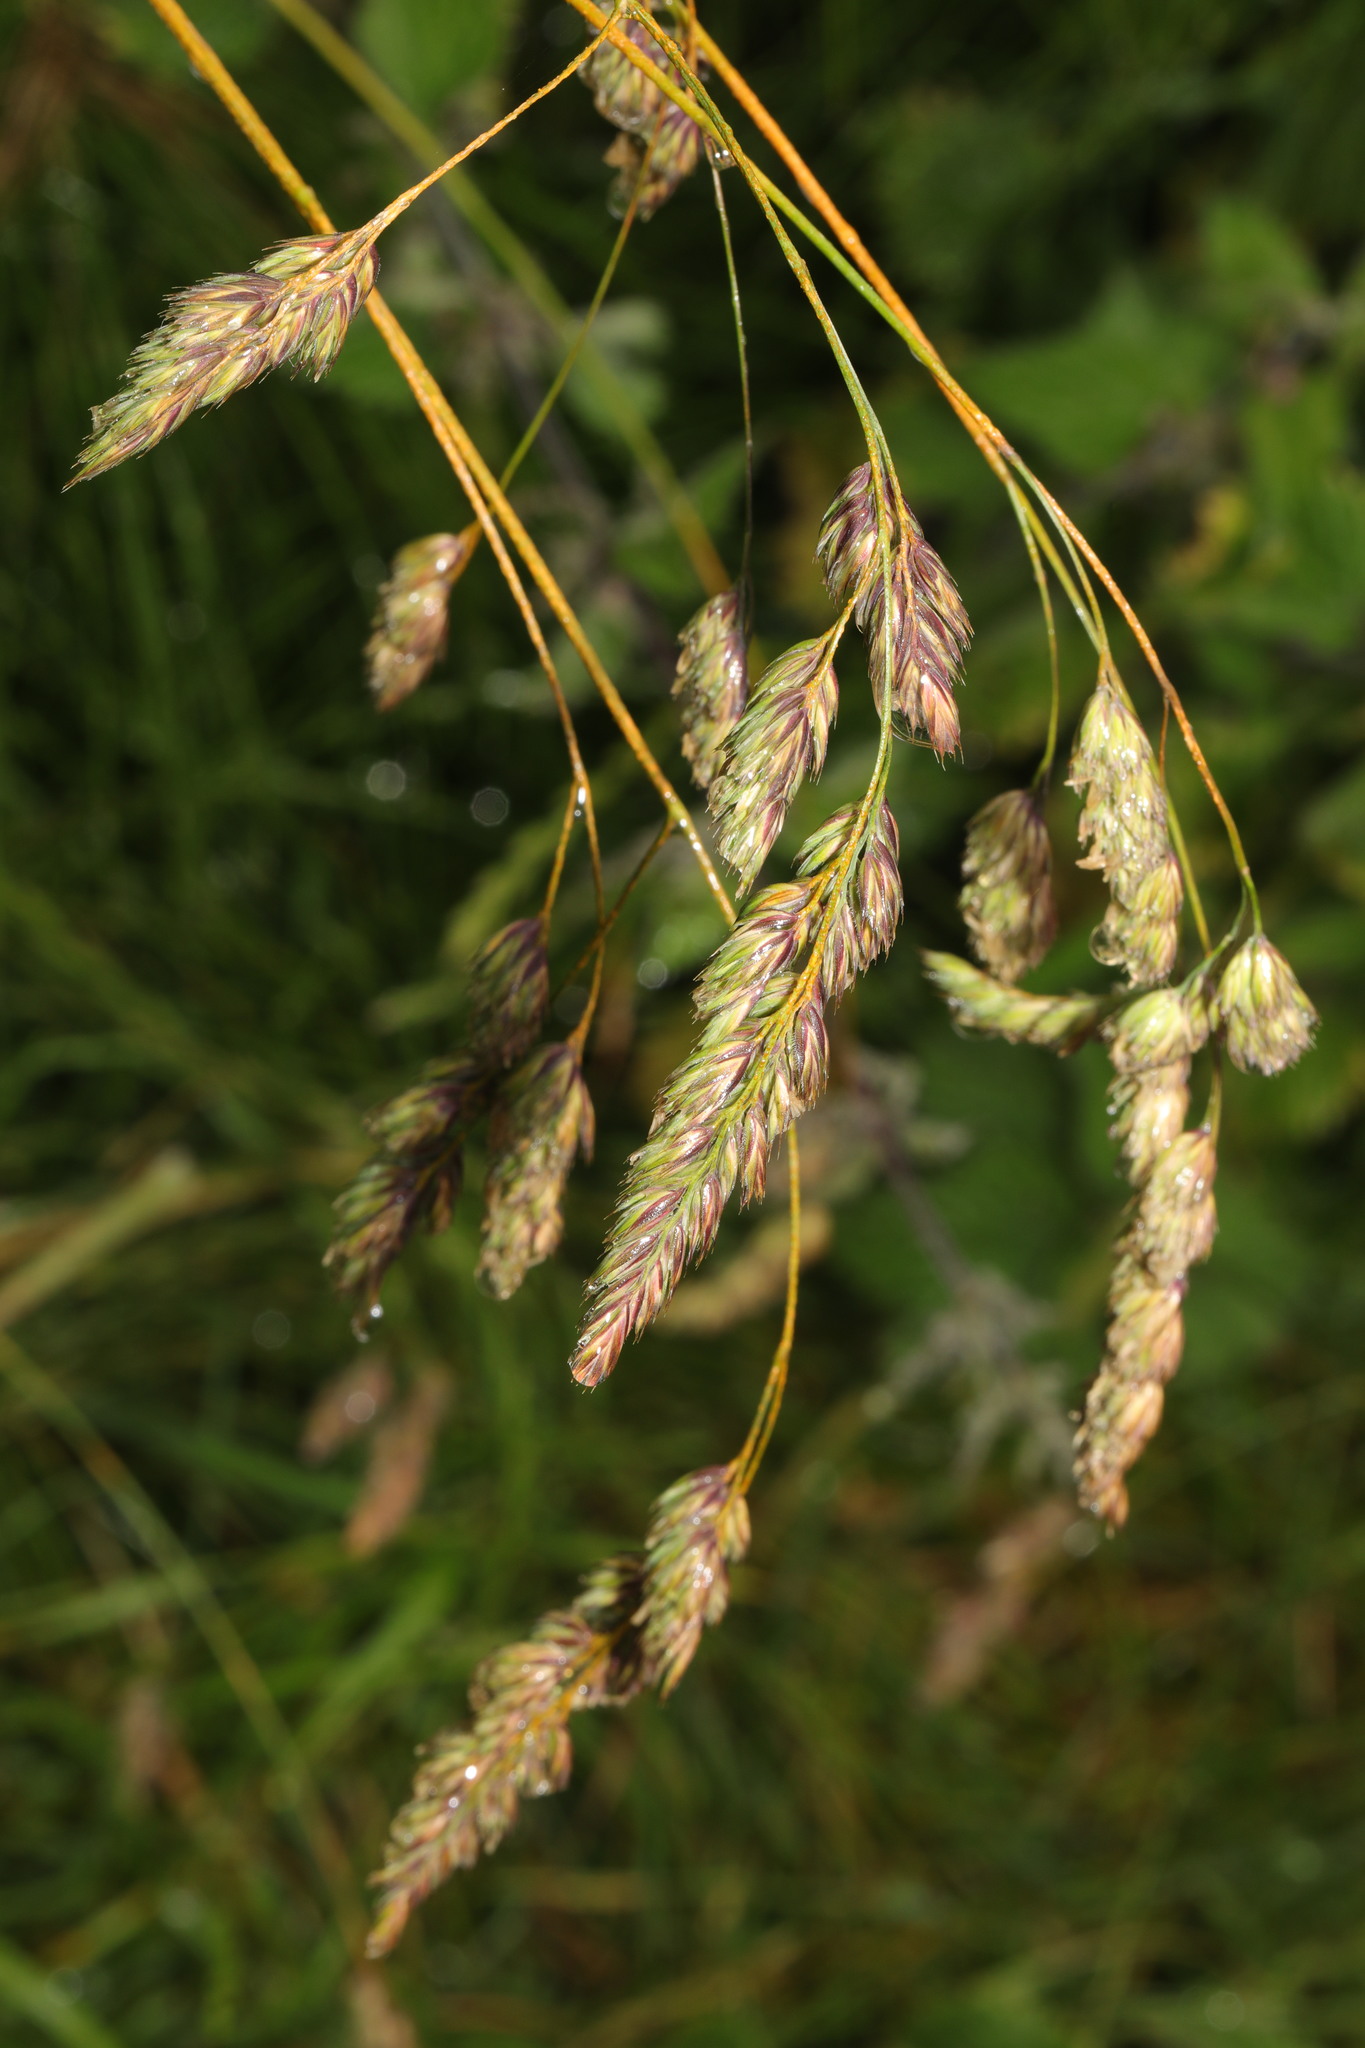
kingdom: Plantae
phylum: Tracheophyta
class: Liliopsida
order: Poales
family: Poaceae
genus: Dactylis
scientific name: Dactylis glomerata
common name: Orchardgrass
